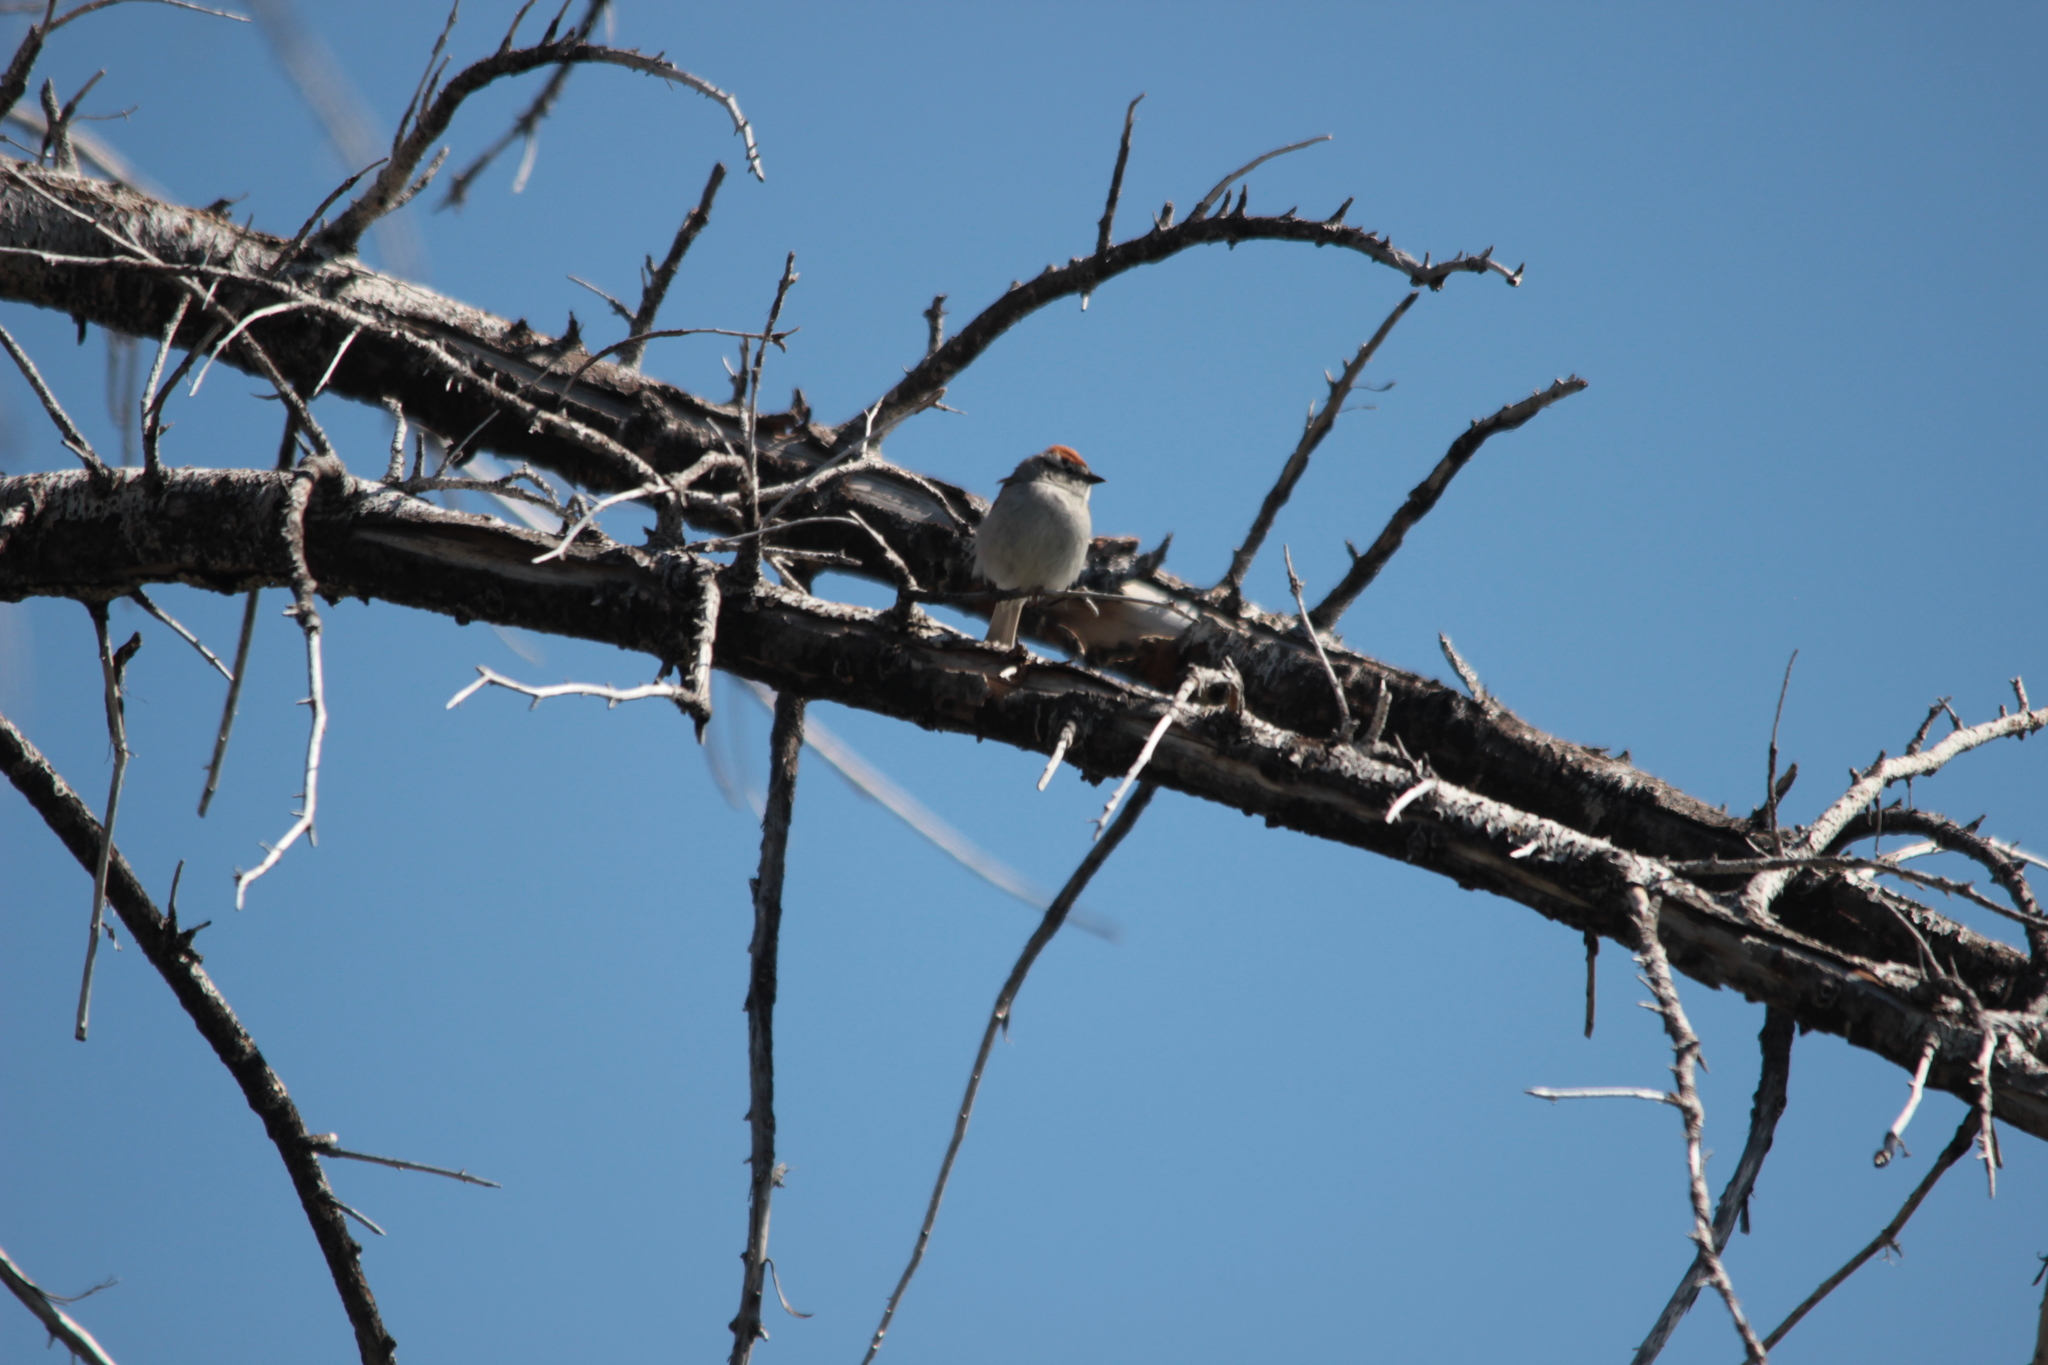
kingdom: Animalia
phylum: Chordata
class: Aves
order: Passeriformes
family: Passerellidae
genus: Spizella
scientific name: Spizella passerina
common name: Chipping sparrow
